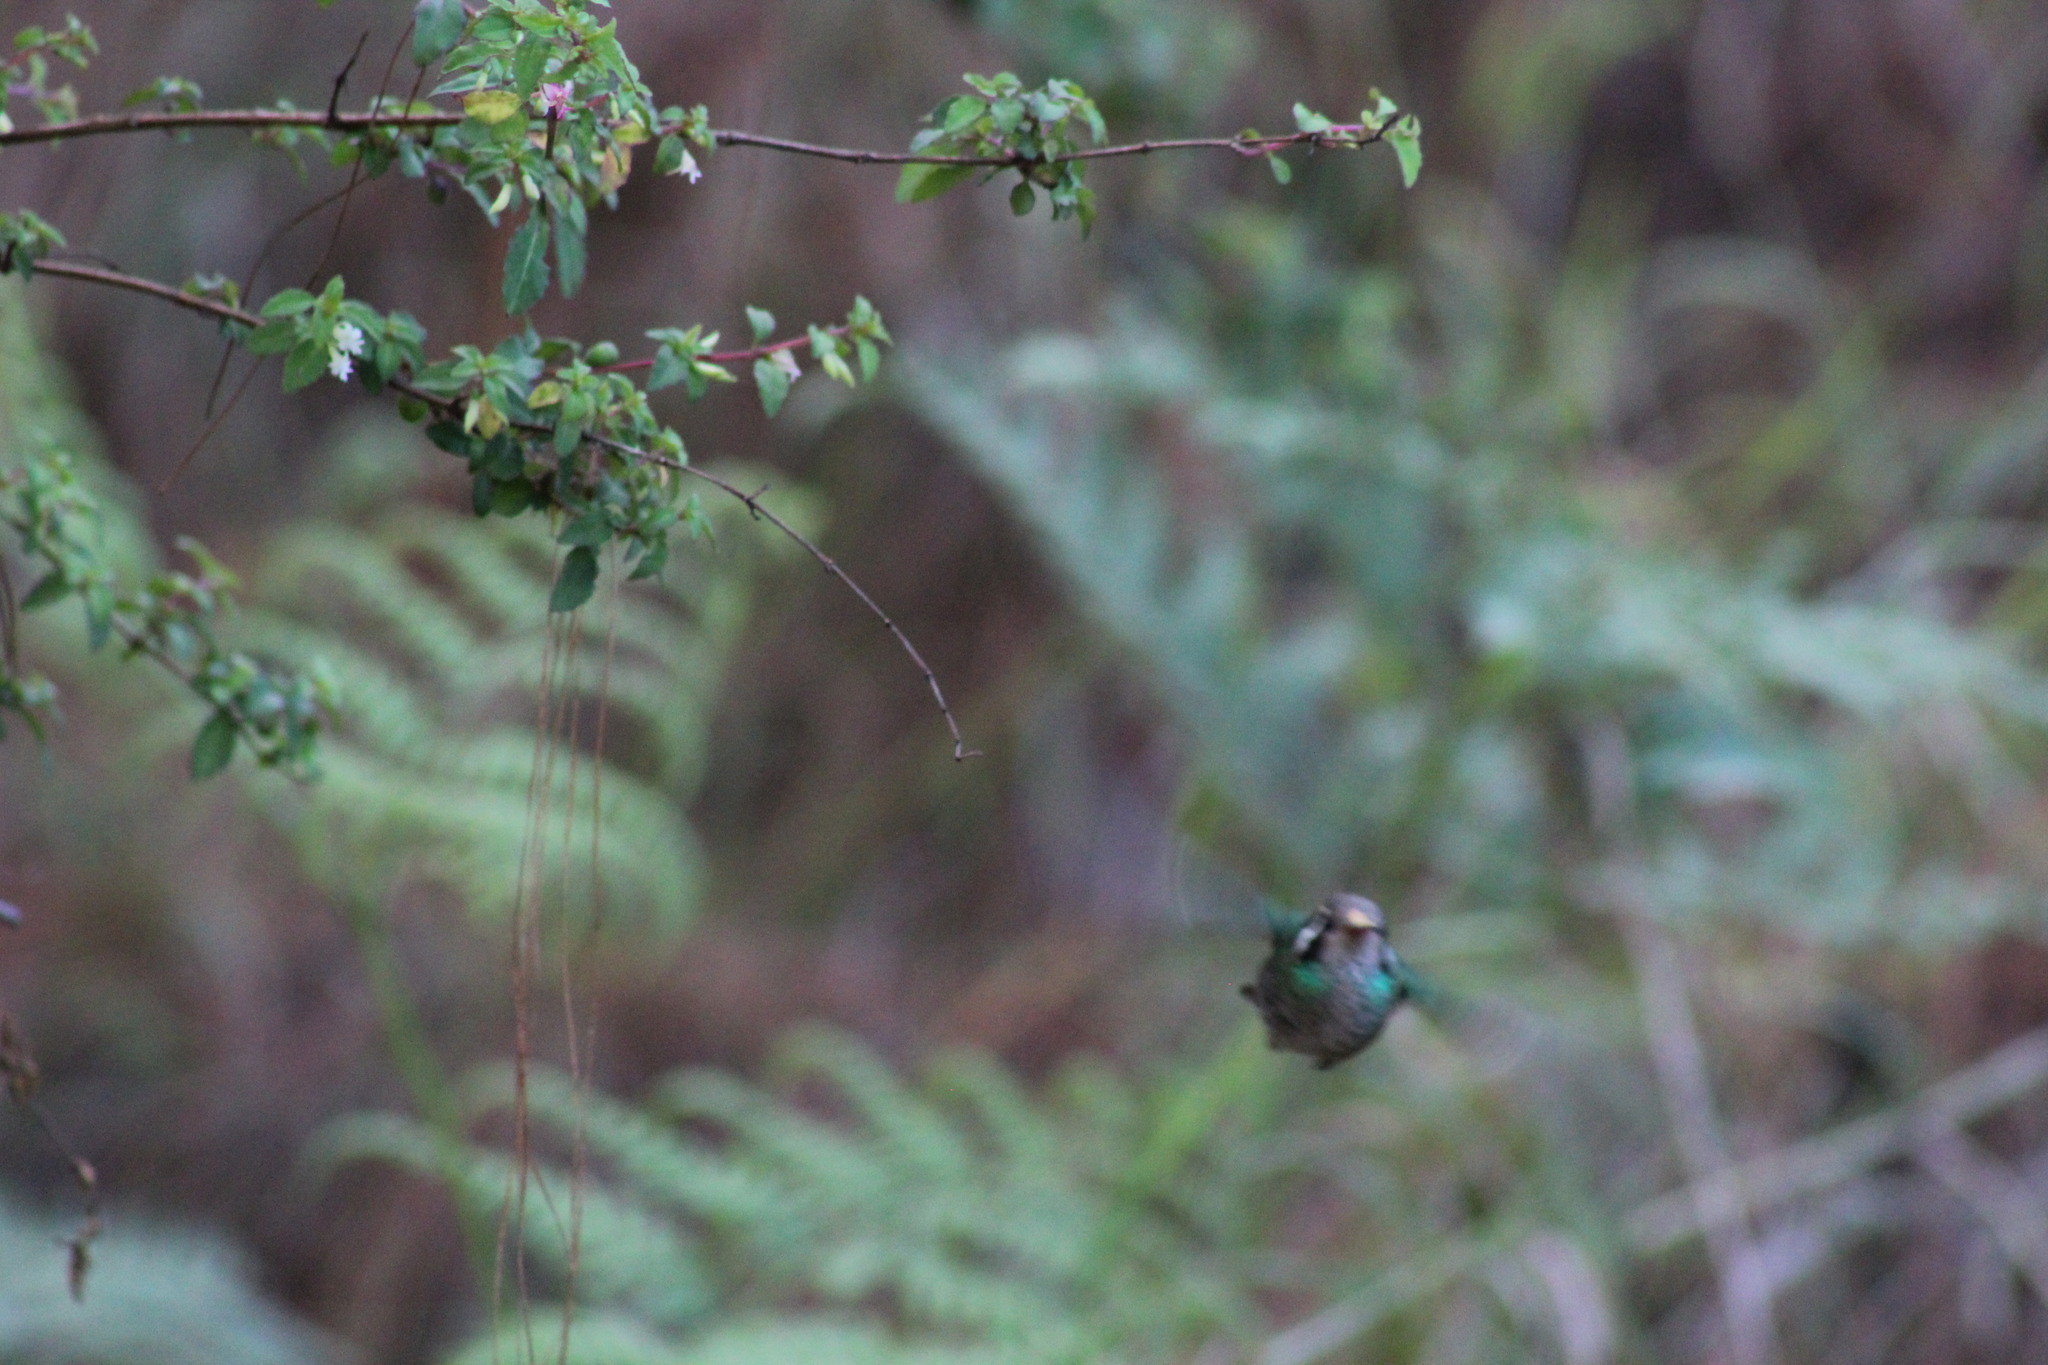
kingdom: Animalia
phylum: Chordata
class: Aves
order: Apodiformes
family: Trochilidae
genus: Basilinna
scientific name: Basilinna leucotis
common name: White-eared hummingbird
